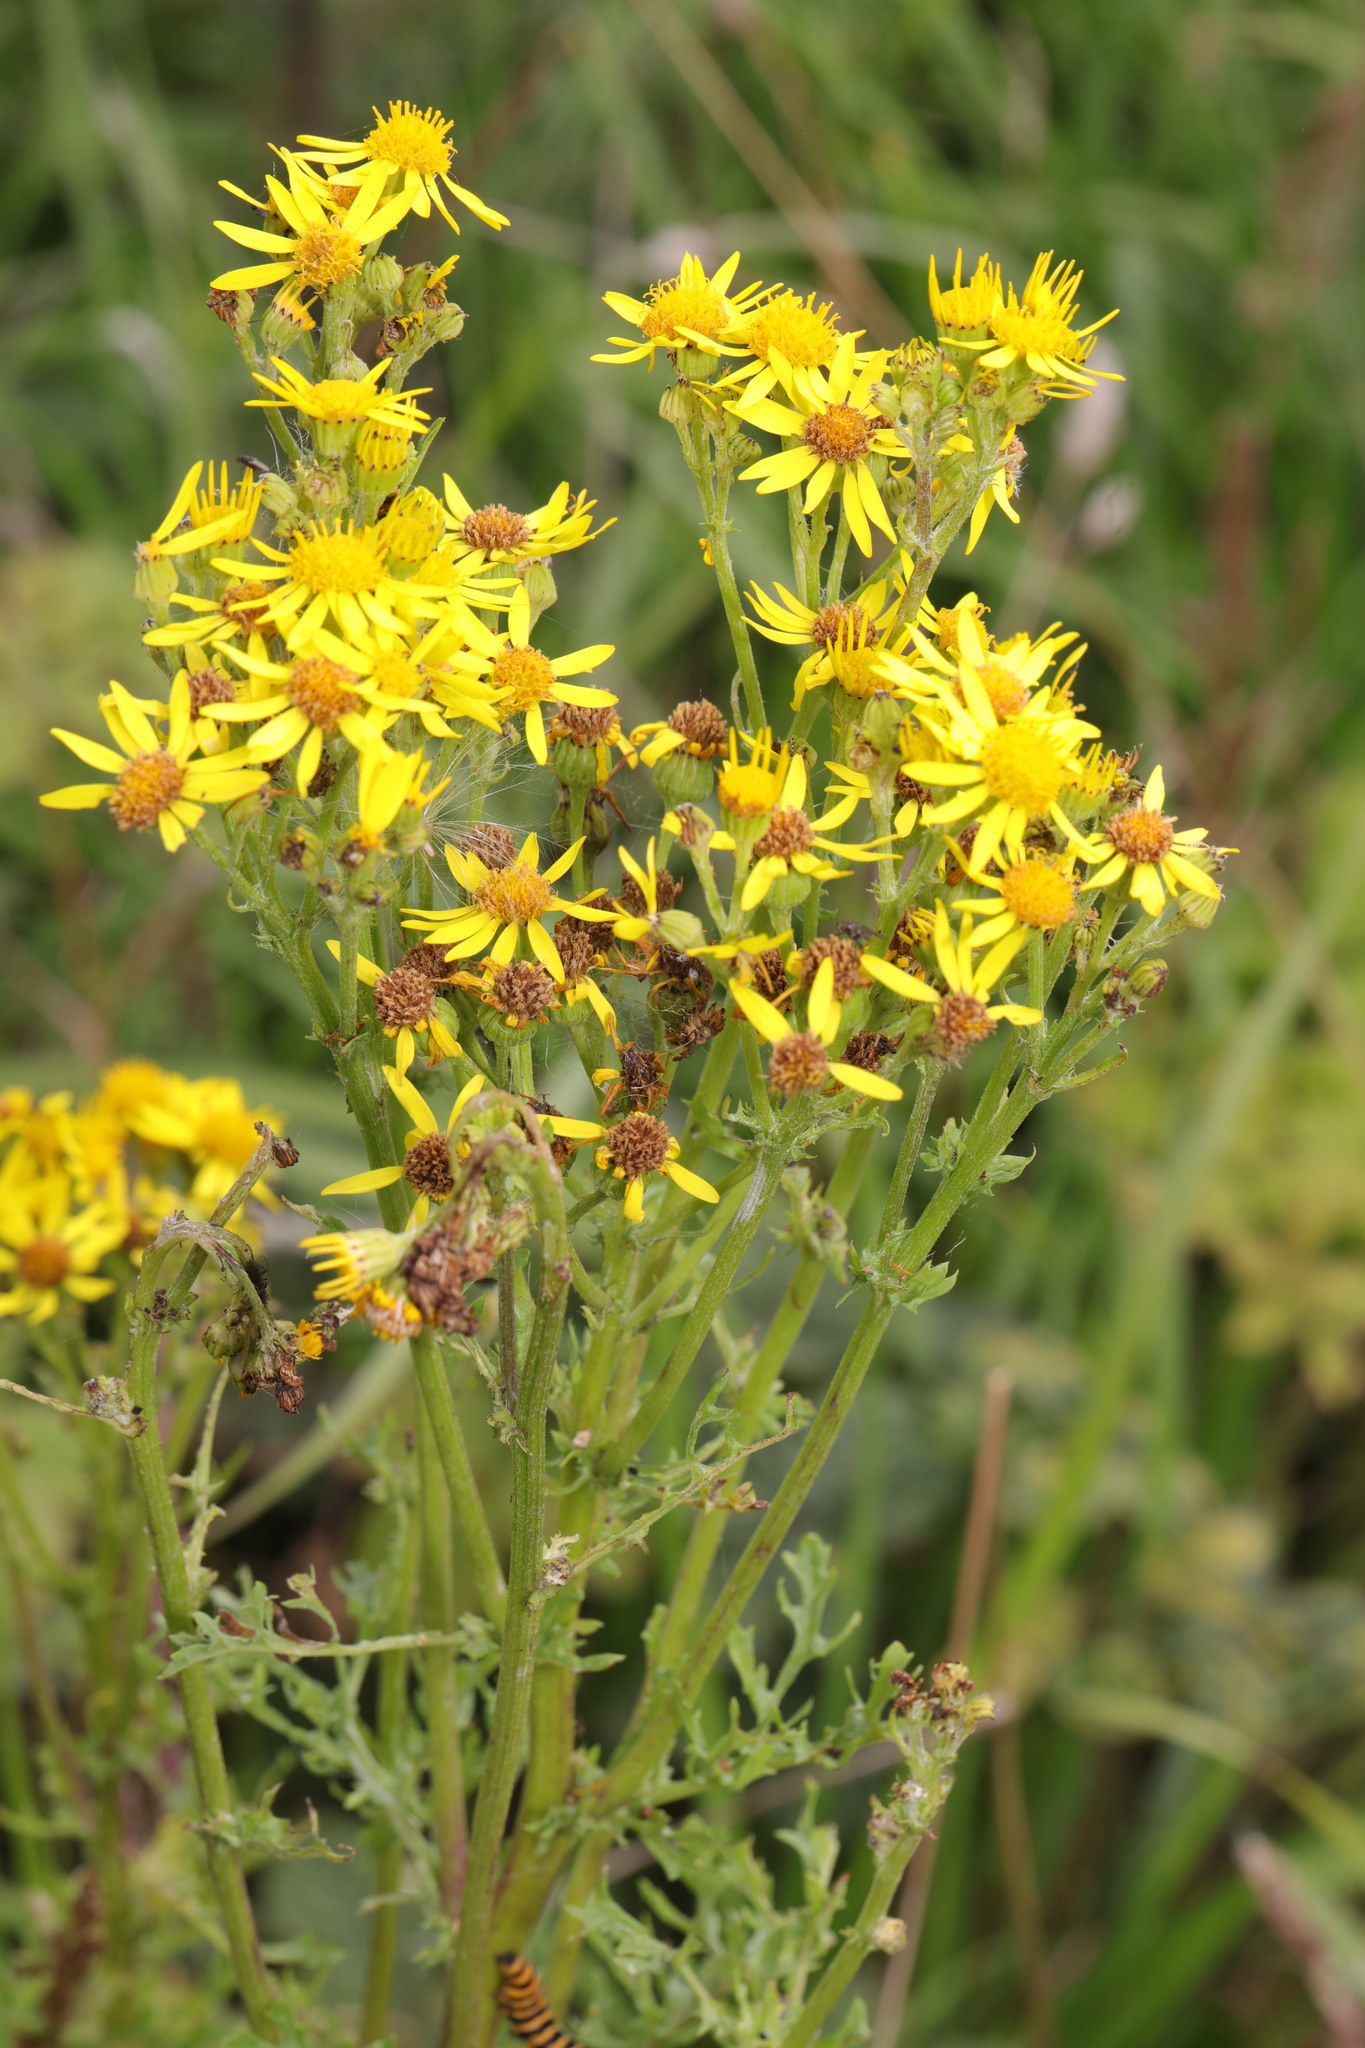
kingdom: Plantae
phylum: Tracheophyta
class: Magnoliopsida
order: Asterales
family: Asteraceae
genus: Jacobaea
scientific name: Jacobaea vulgaris
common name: Stinking willie
